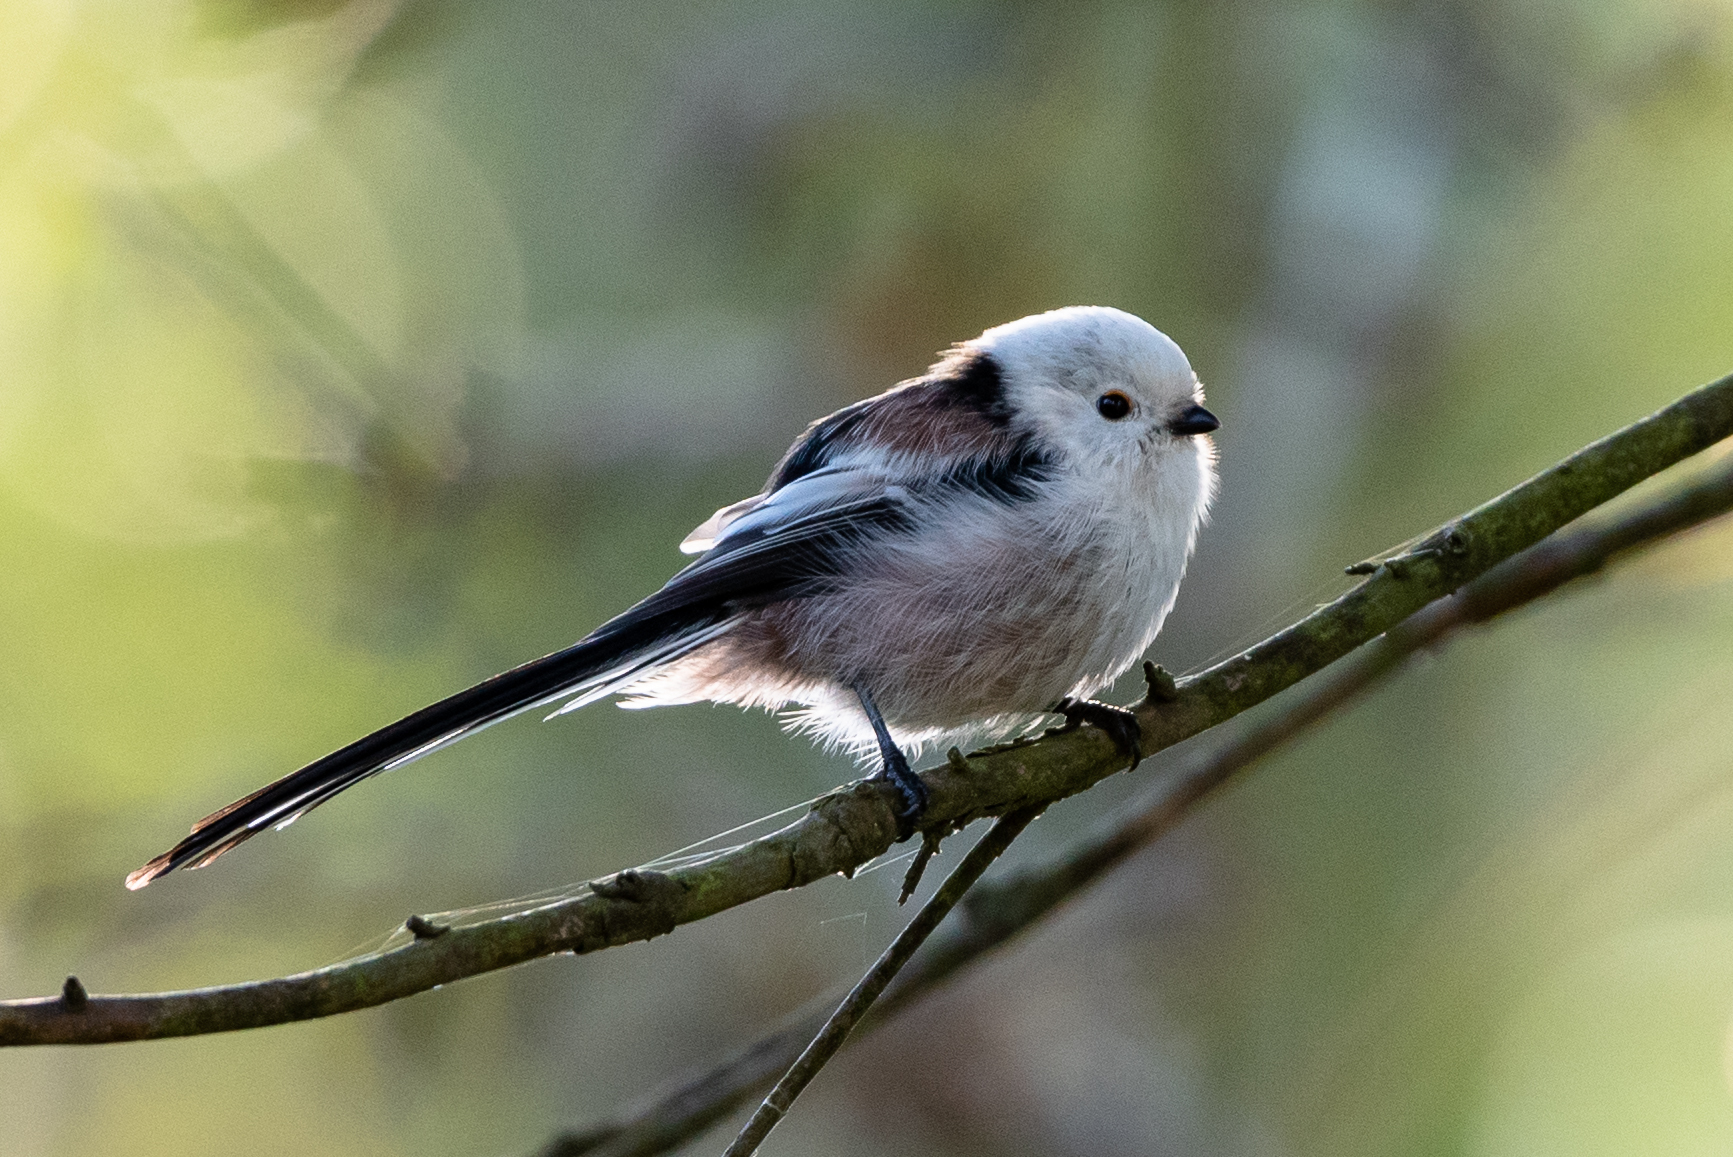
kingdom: Animalia
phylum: Chordata
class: Aves
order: Passeriformes
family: Aegithalidae
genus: Aegithalos
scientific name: Aegithalos caudatus
